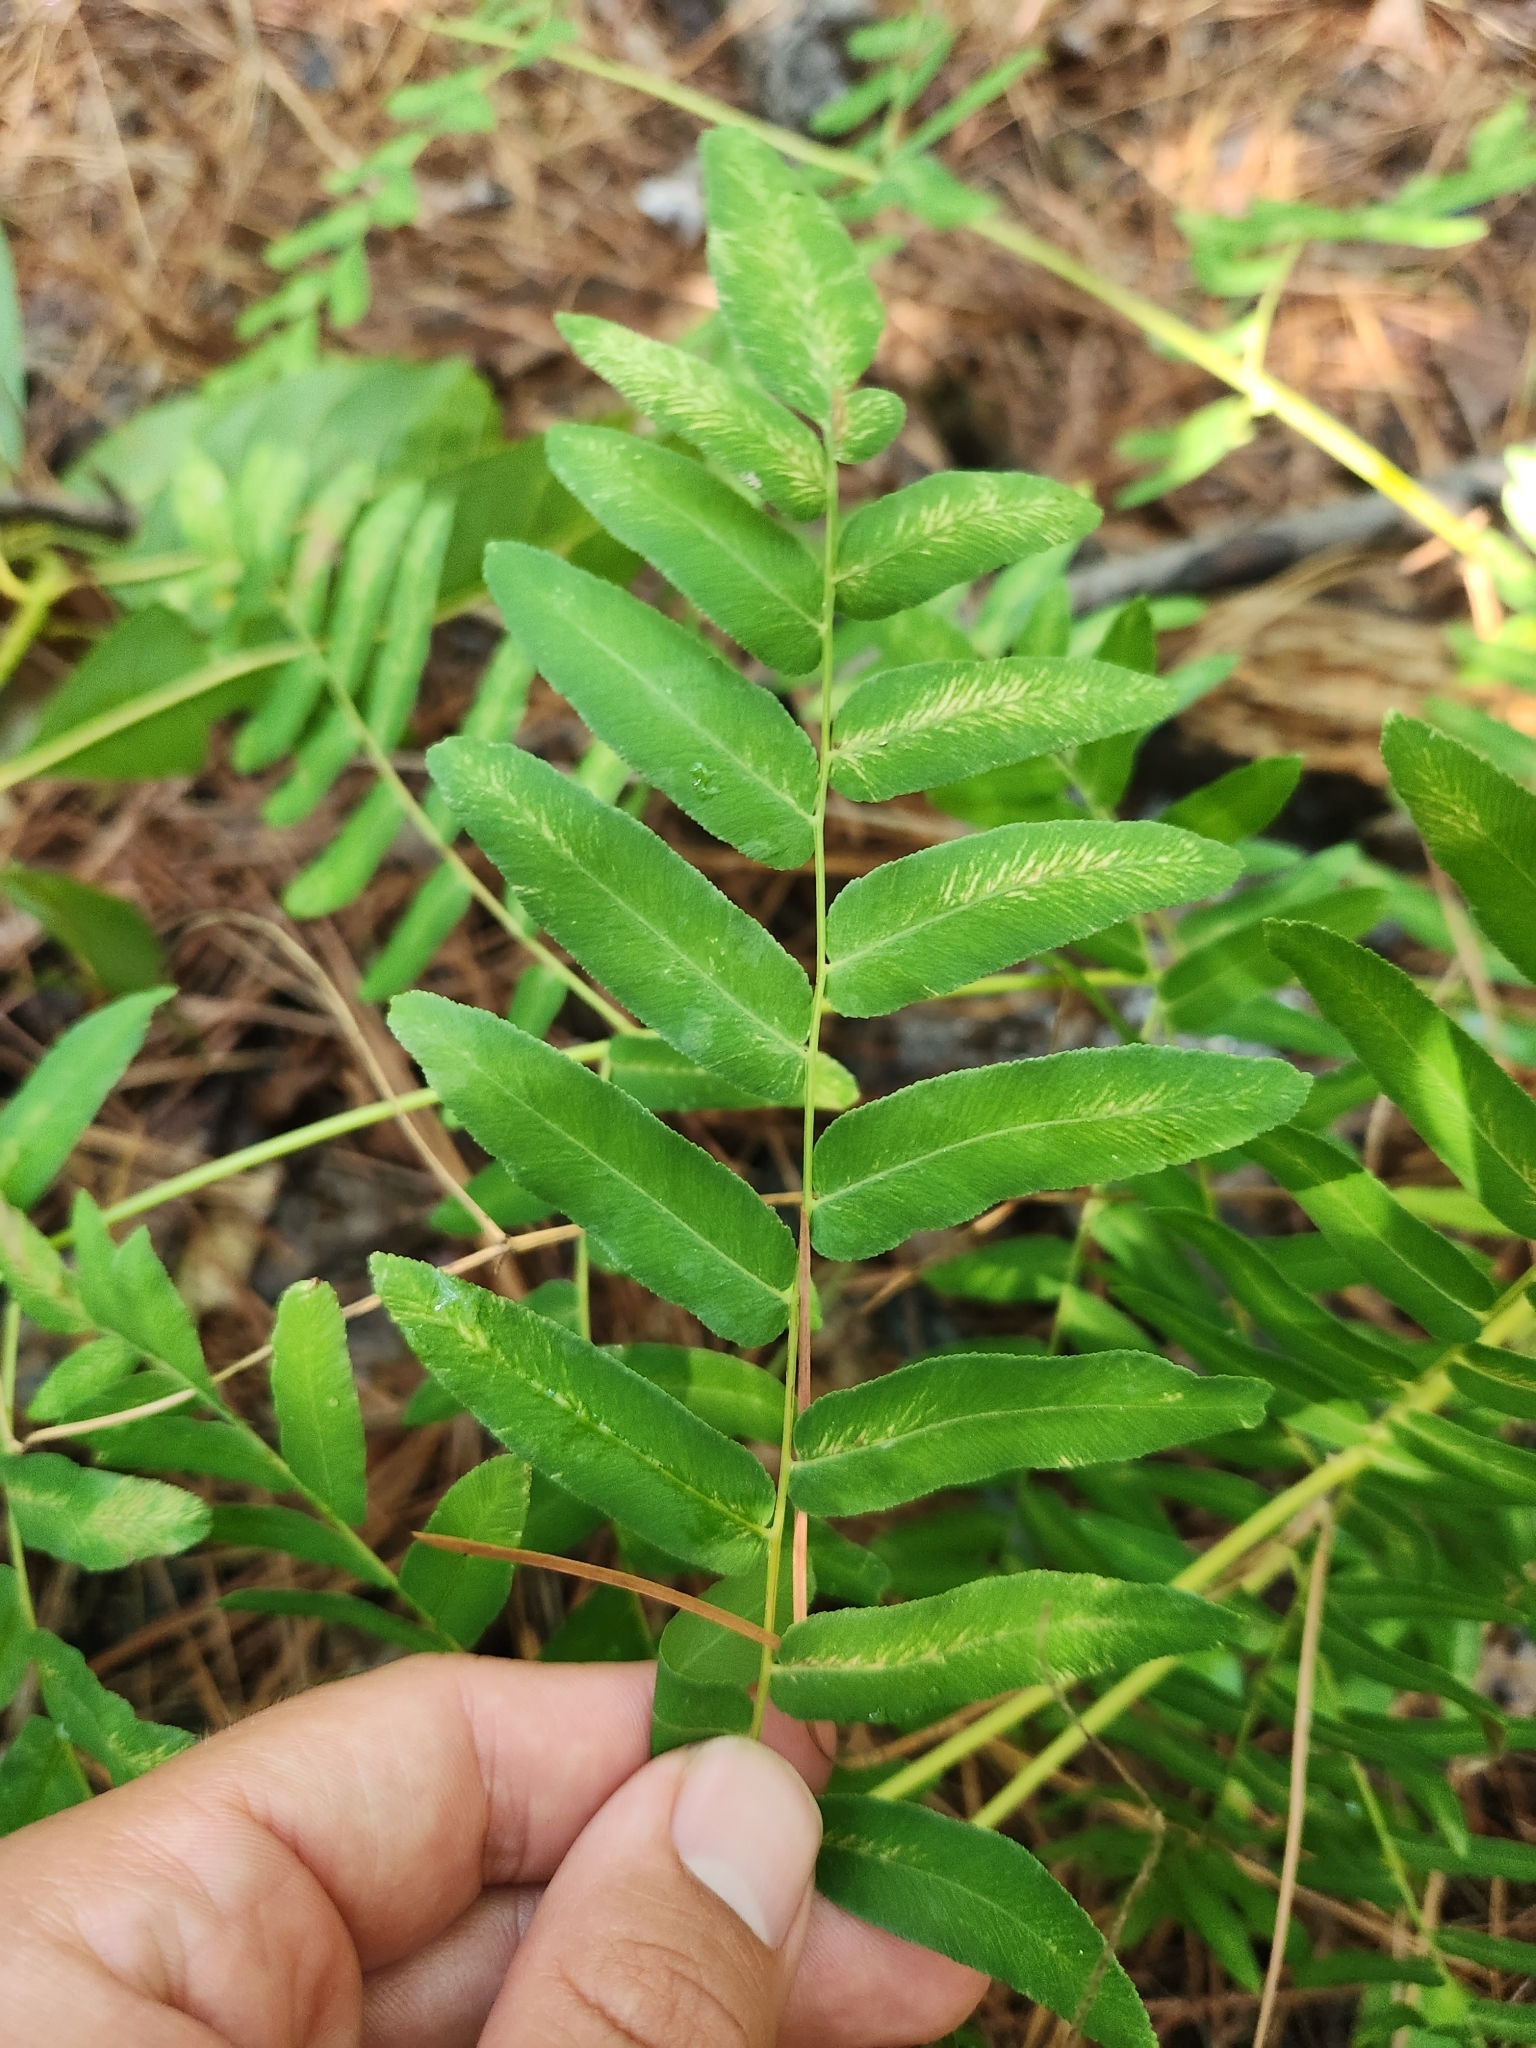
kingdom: Plantae
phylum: Tracheophyta
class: Polypodiopsida
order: Osmundales
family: Osmundaceae
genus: Osmunda
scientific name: Osmunda spectabilis
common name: American royal fern
